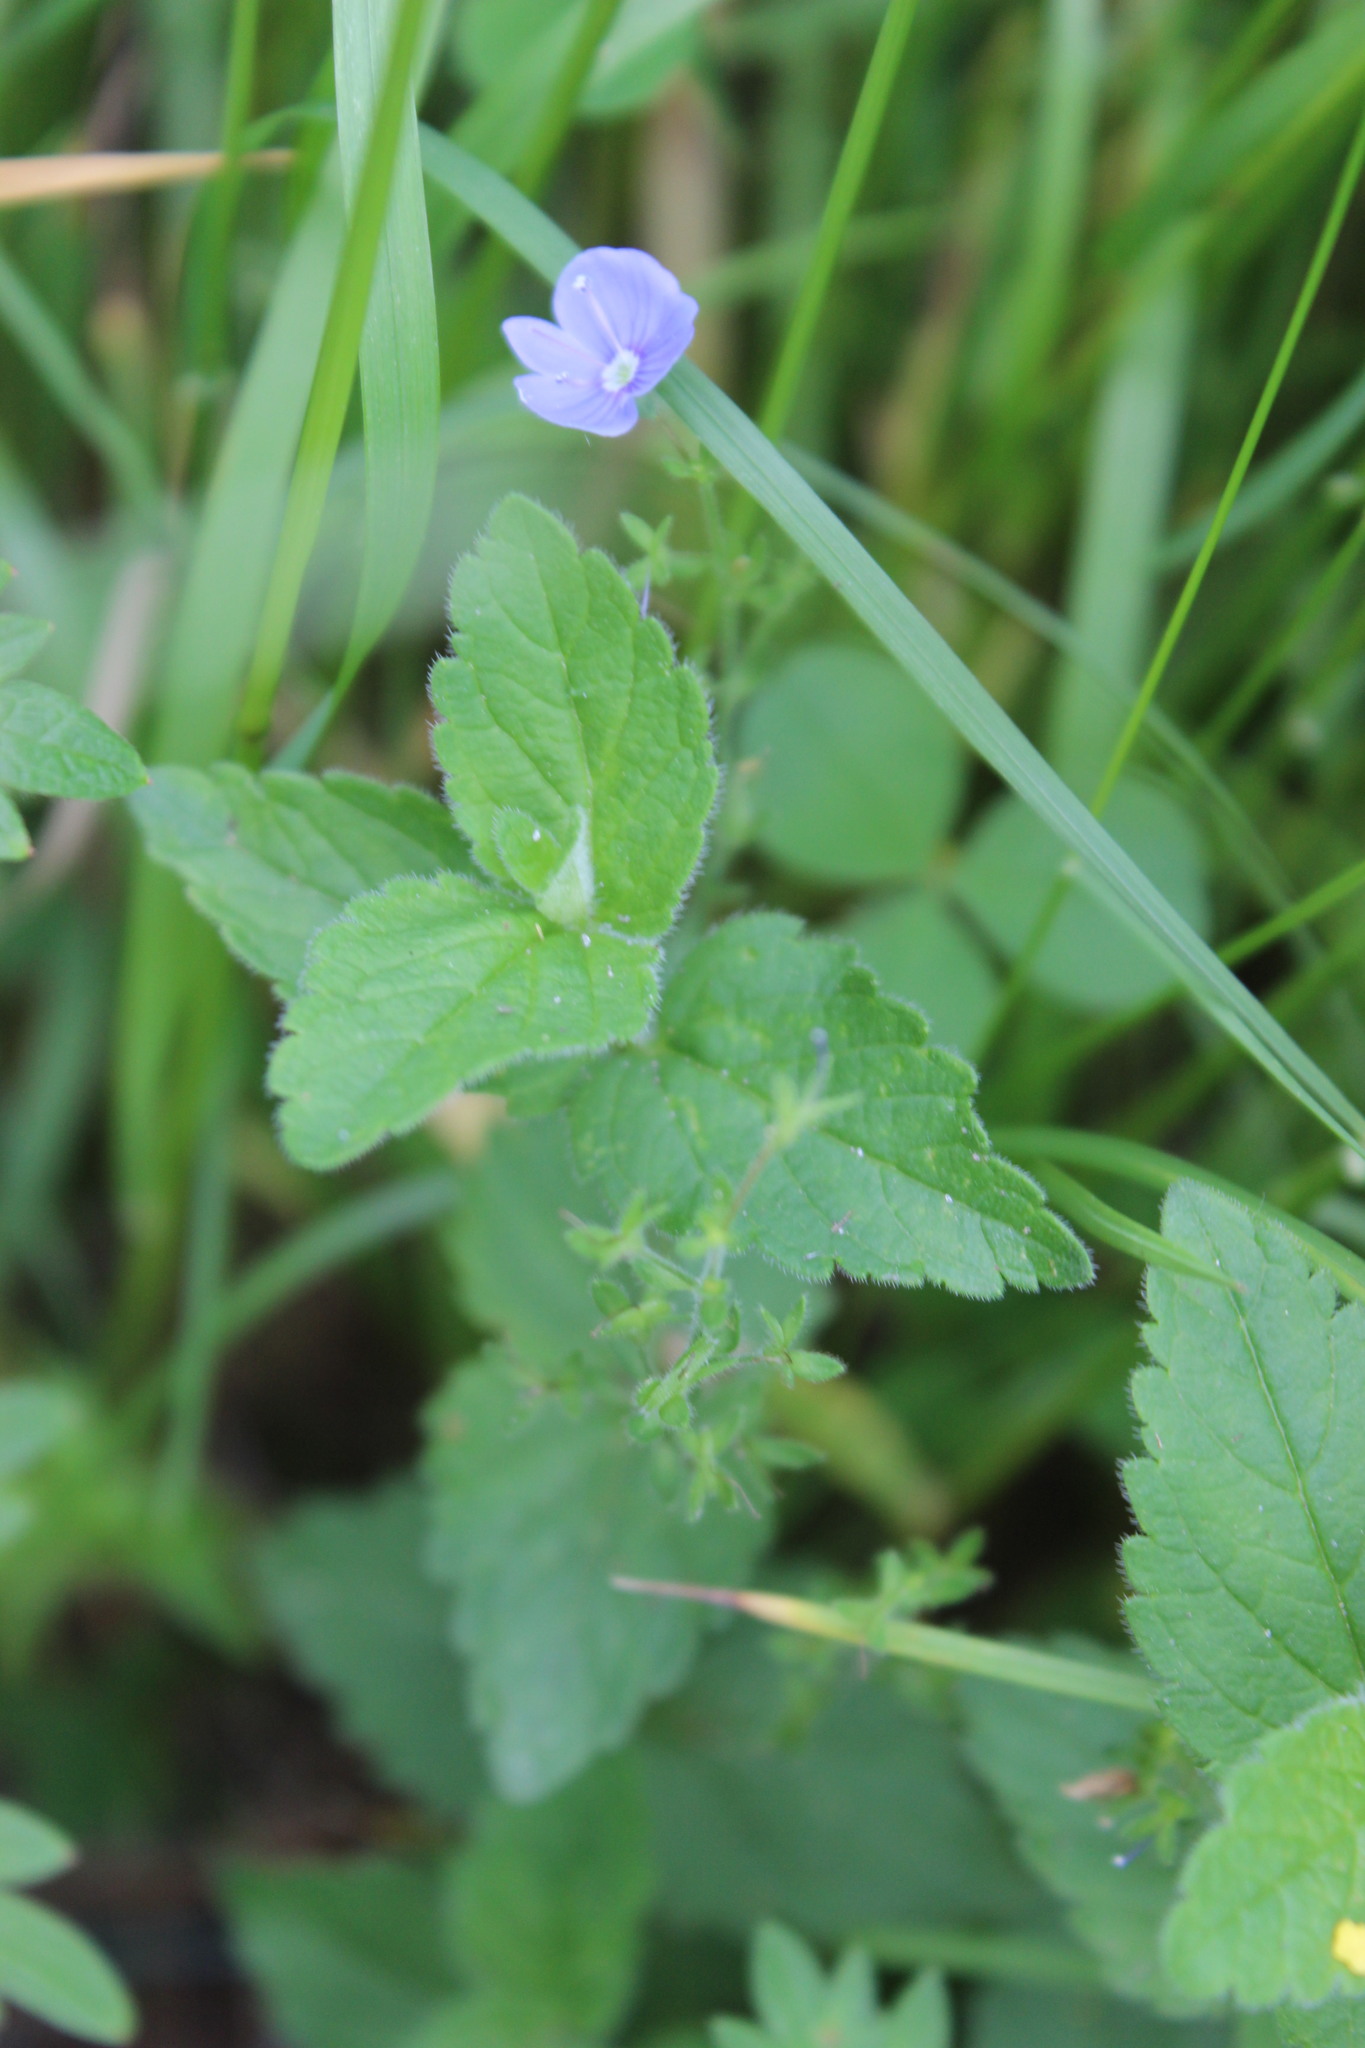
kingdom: Plantae
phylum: Tracheophyta
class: Magnoliopsida
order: Lamiales
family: Plantaginaceae
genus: Veronica
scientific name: Veronica chamaedrys
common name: Germander speedwell
